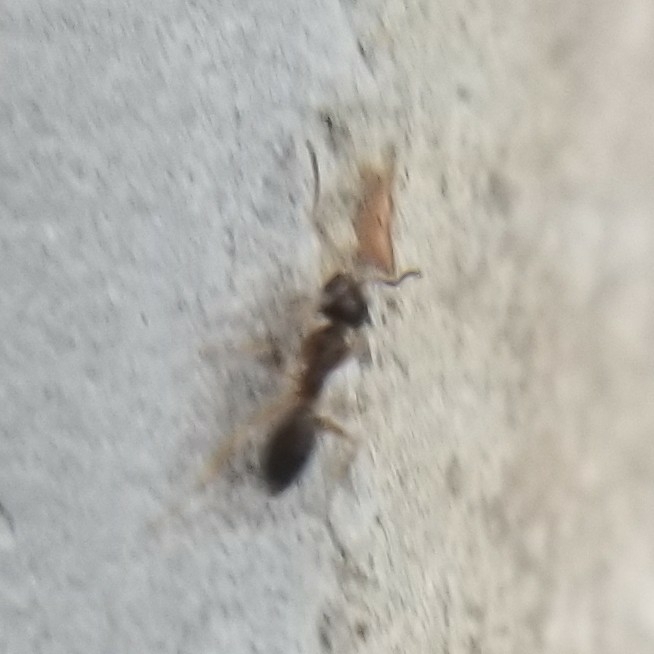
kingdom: Animalia
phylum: Arthropoda
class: Insecta
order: Hymenoptera
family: Formicidae
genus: Tapinoma
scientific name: Tapinoma sessile
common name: Odorous house ant
